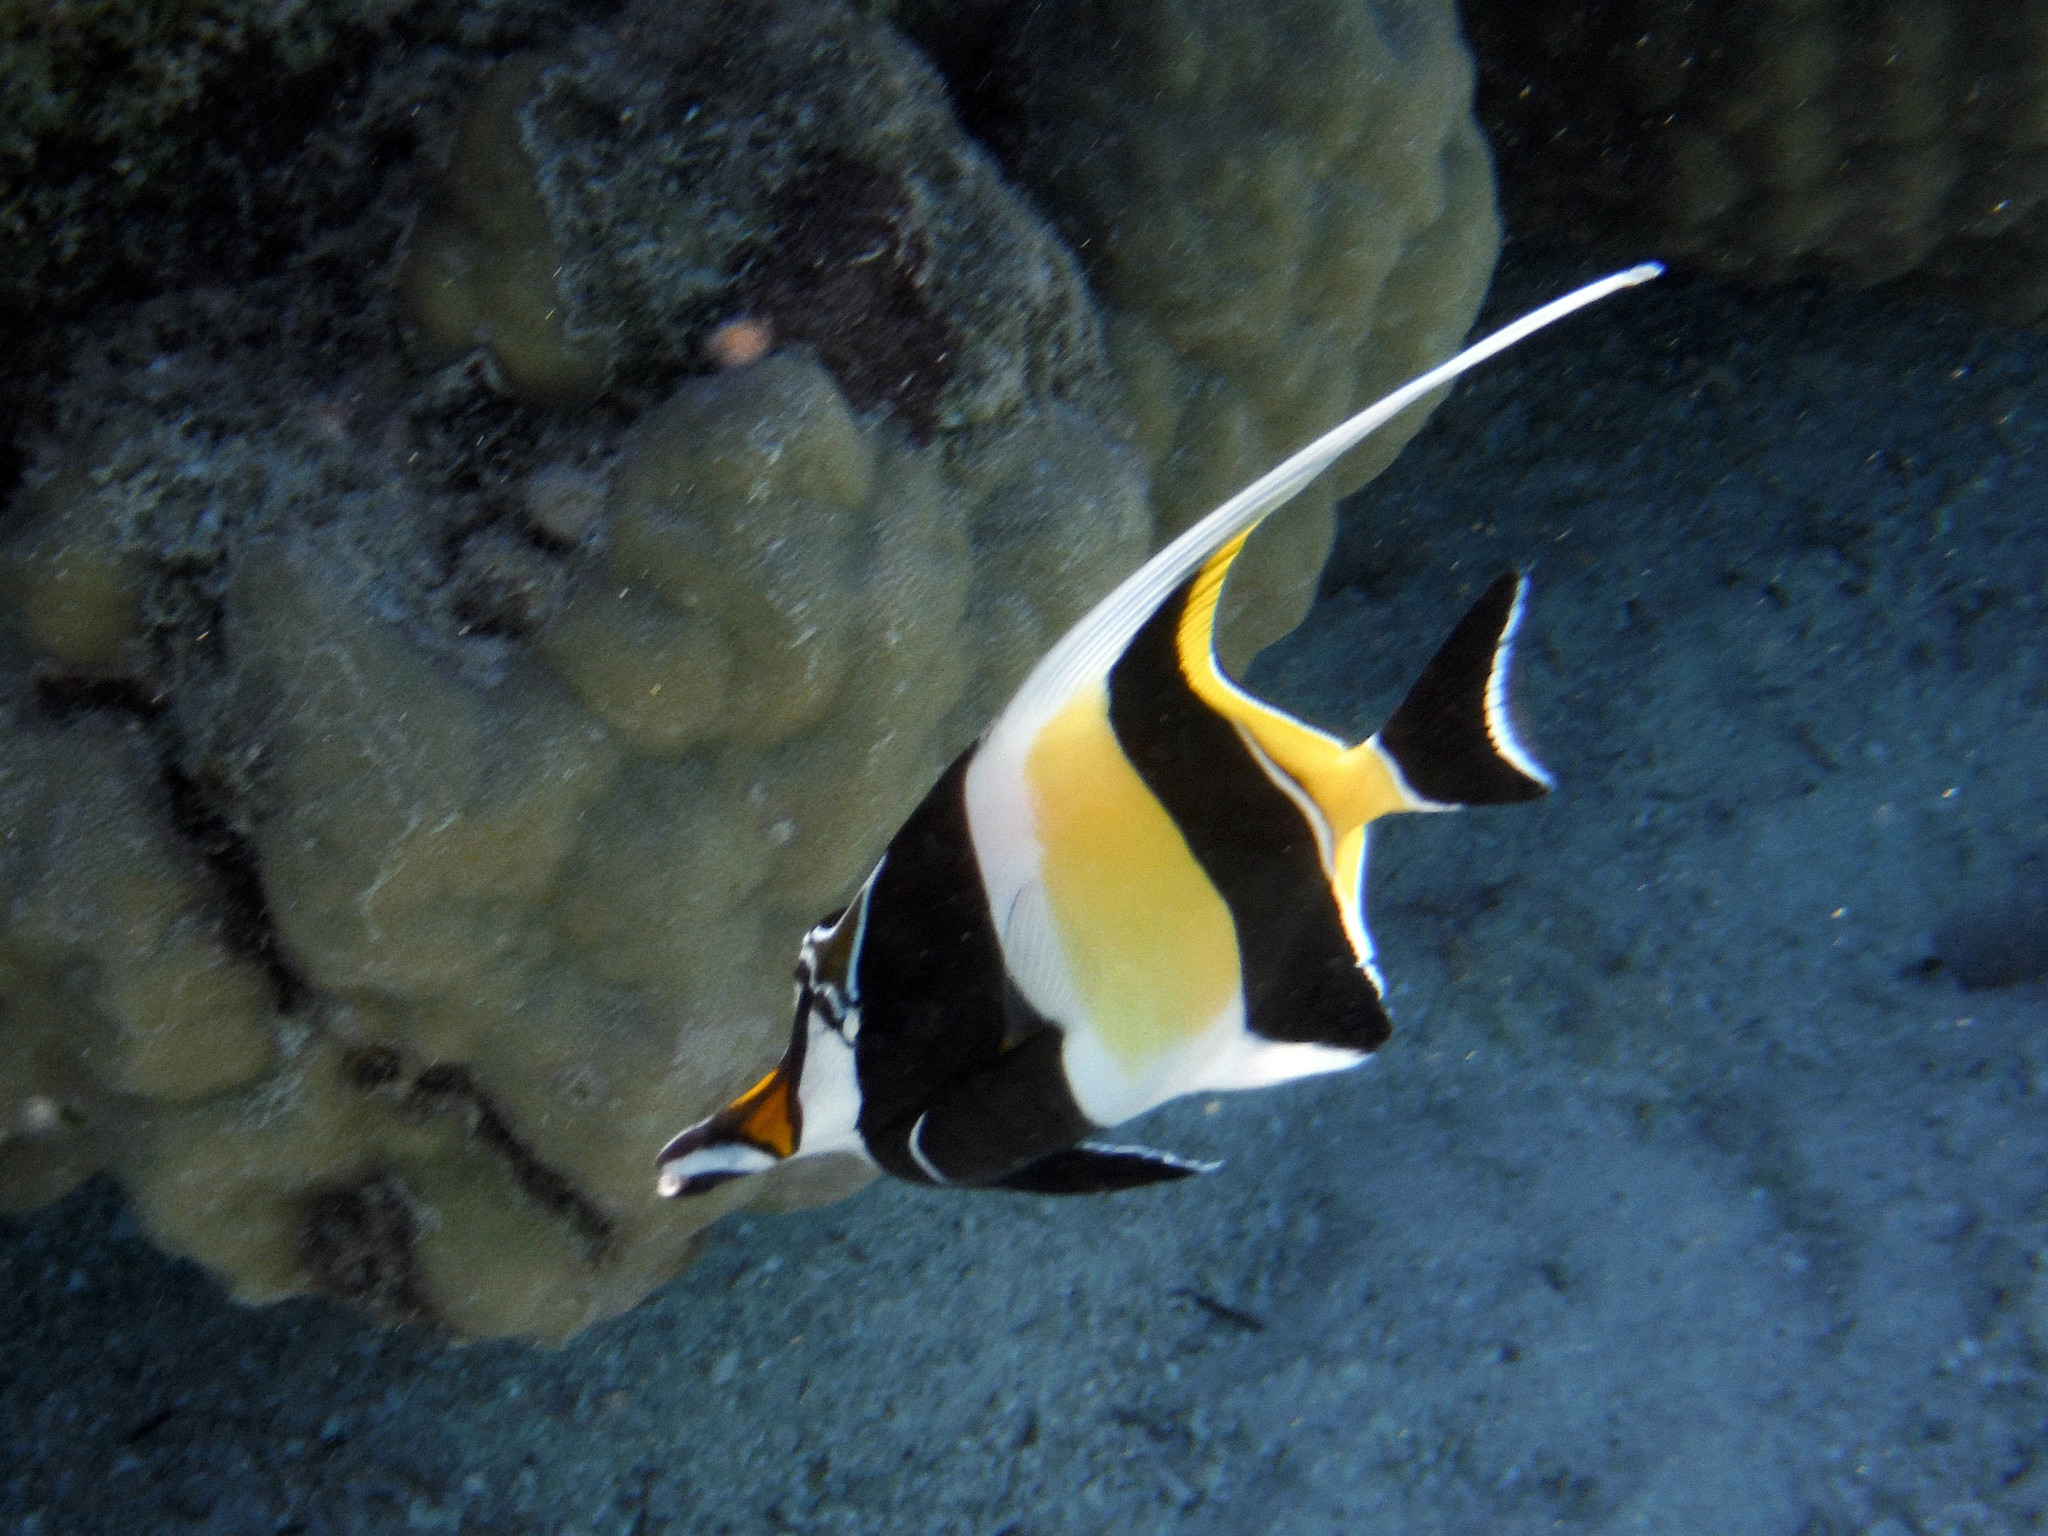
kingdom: Animalia
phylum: Chordata
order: Perciformes
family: Zanclidae
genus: Zanclus
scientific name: Zanclus cornutus
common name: Moorish idol
